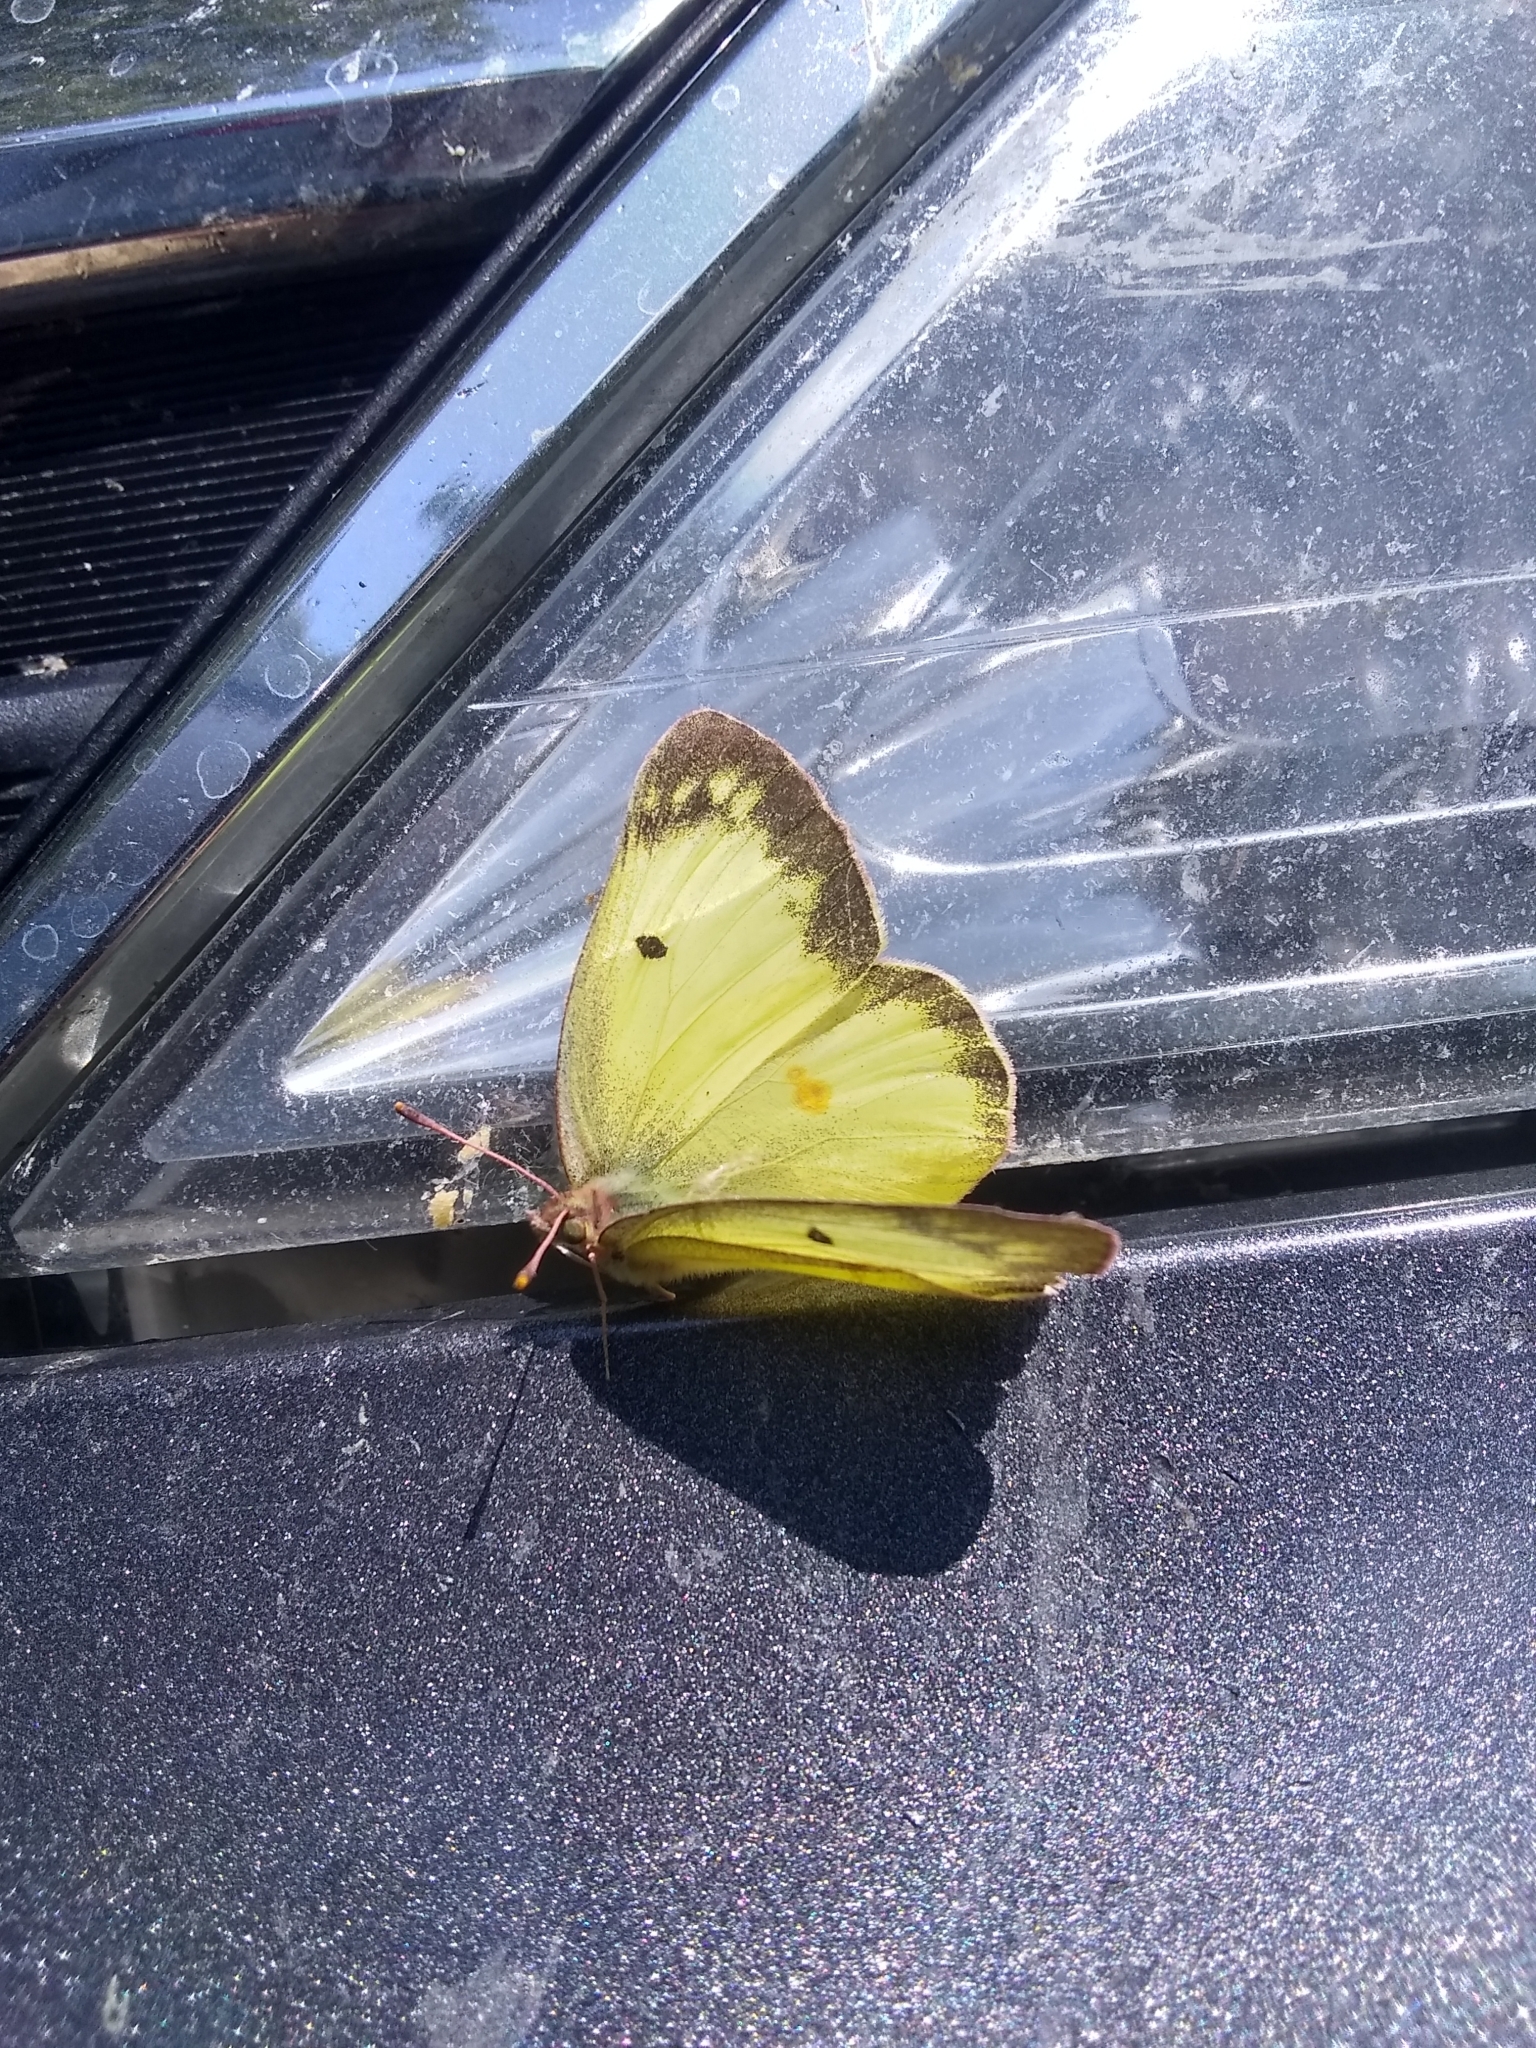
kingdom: Animalia
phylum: Arthropoda
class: Insecta
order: Lepidoptera
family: Pieridae
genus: Colias
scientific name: Colias philodice
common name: Clouded sulphur
